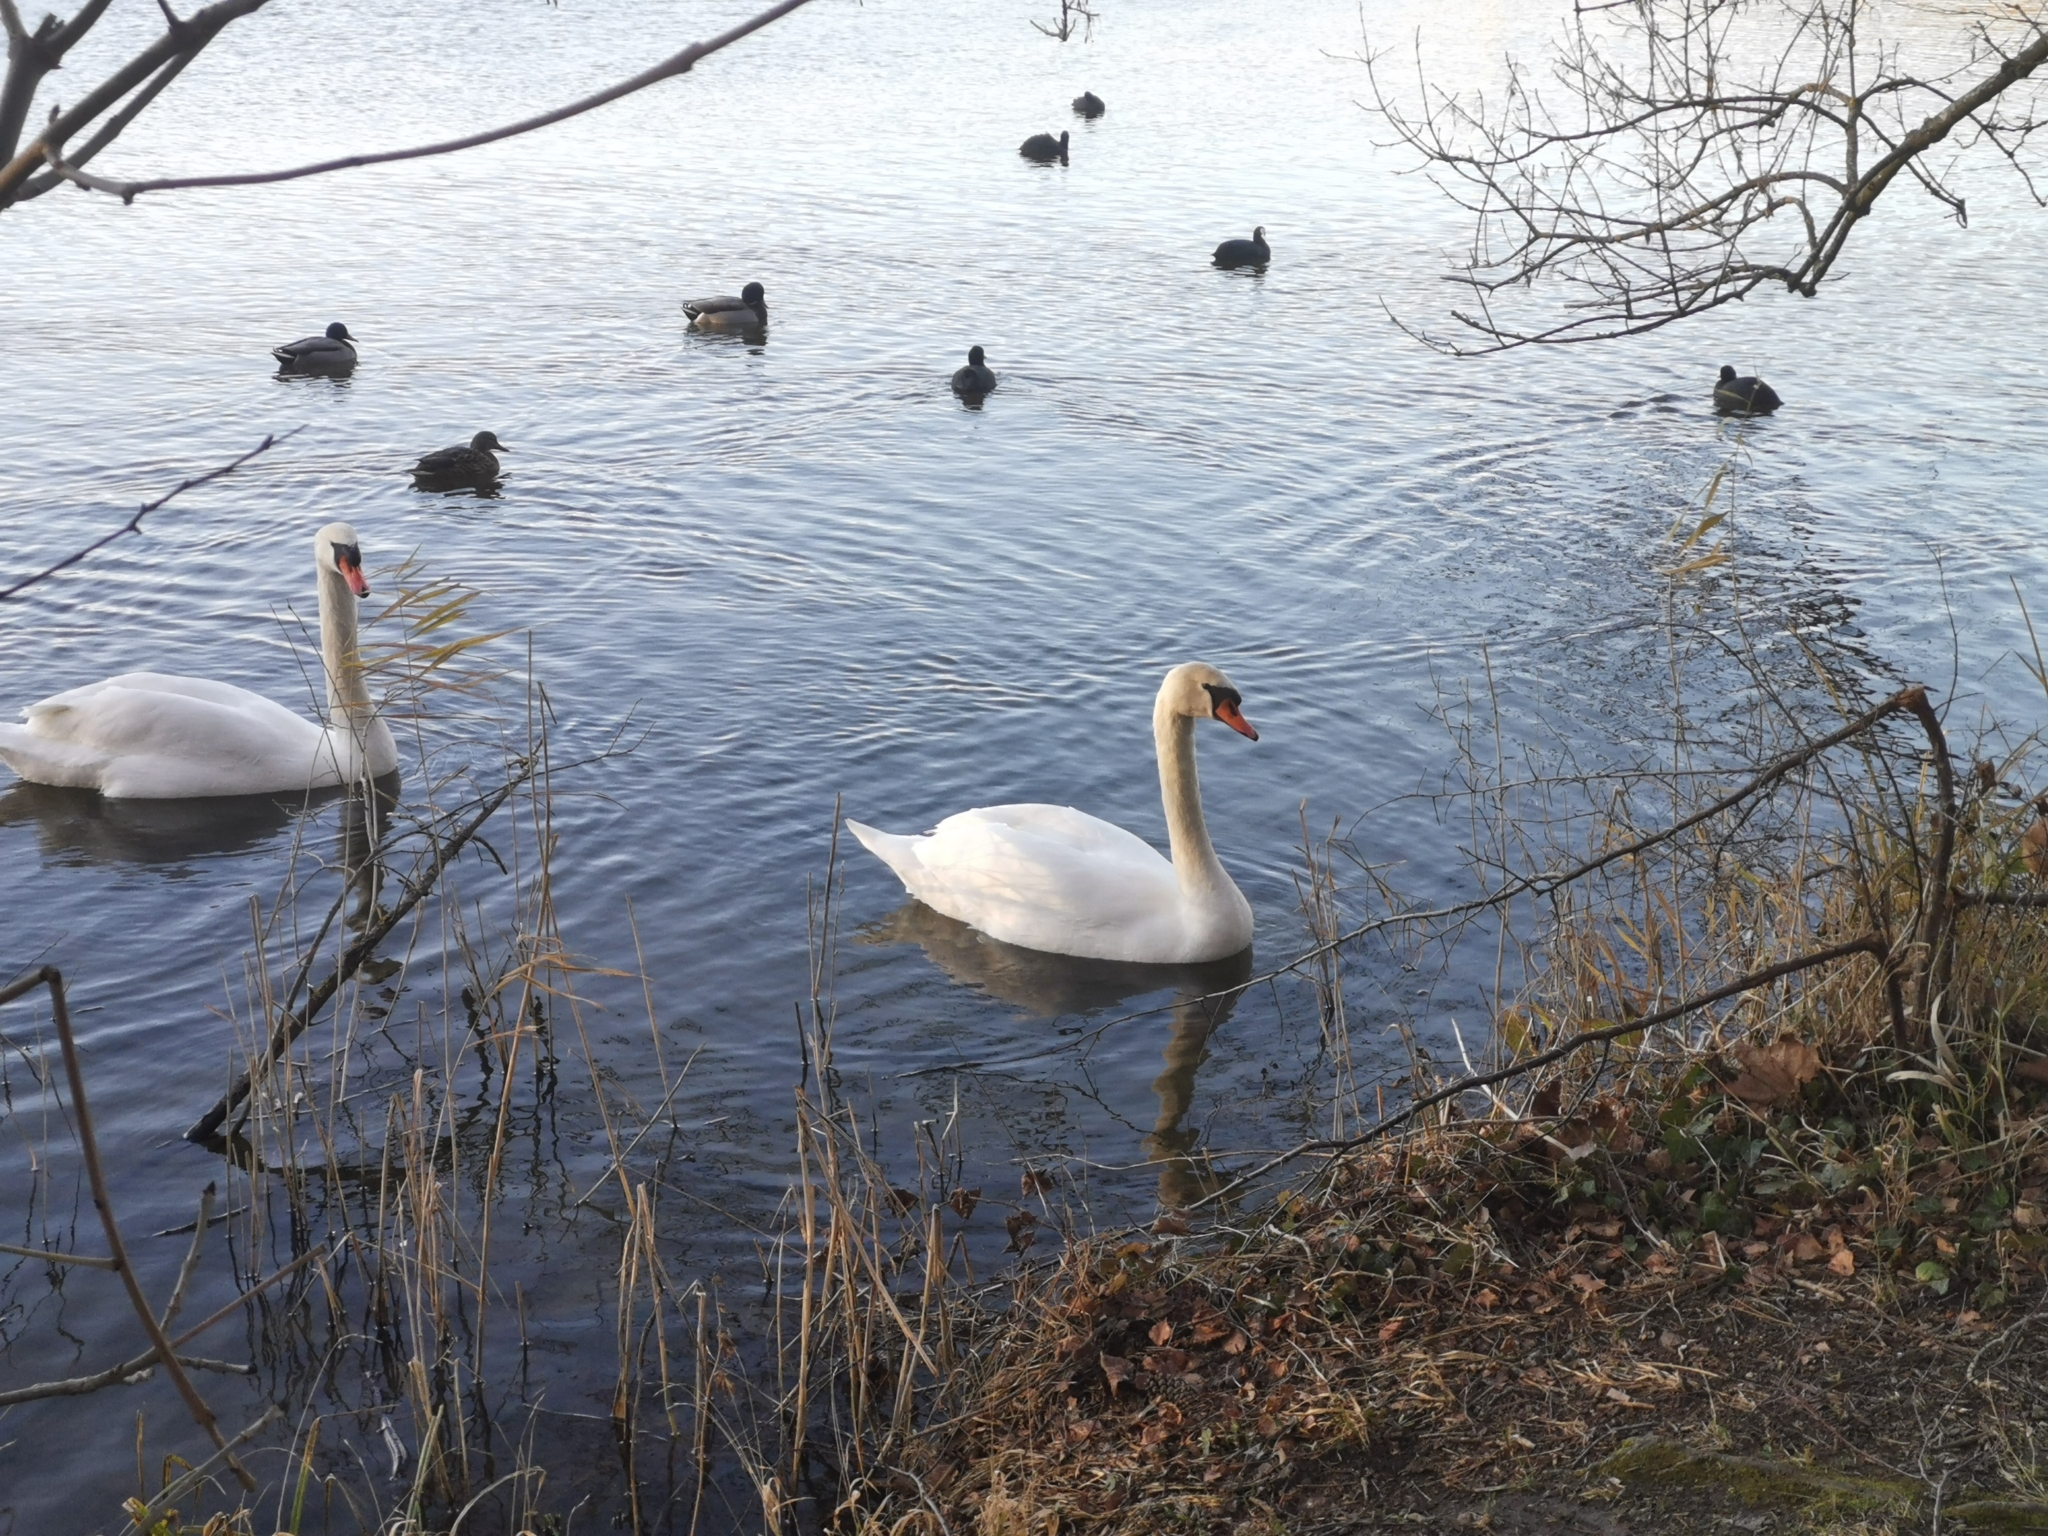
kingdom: Animalia
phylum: Chordata
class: Aves
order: Anseriformes
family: Anatidae
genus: Cygnus
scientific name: Cygnus olor
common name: Mute swan
